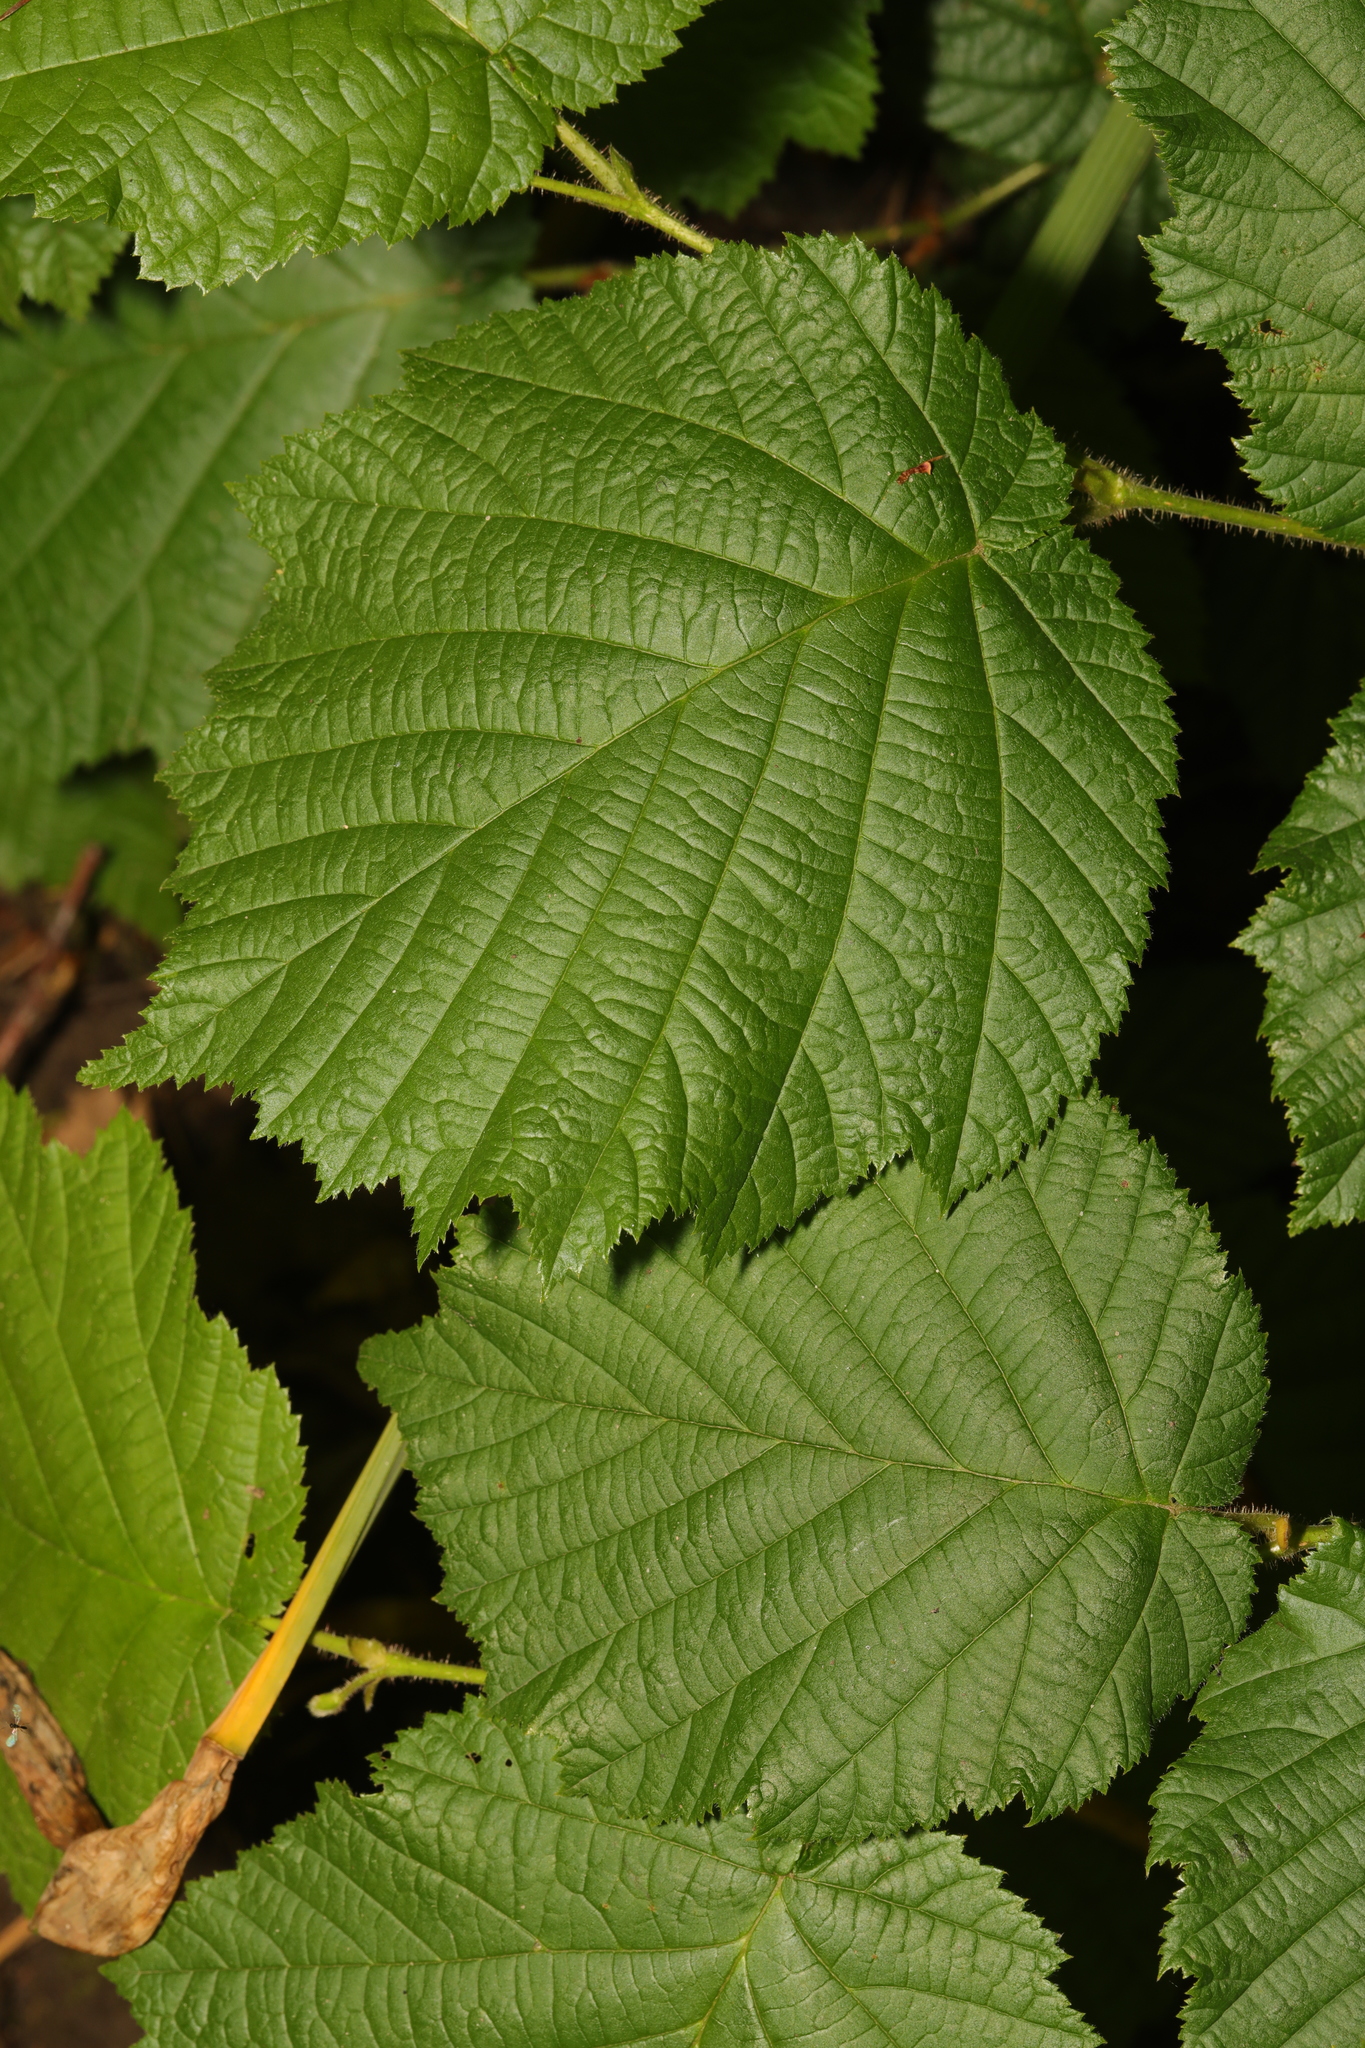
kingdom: Plantae
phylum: Tracheophyta
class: Magnoliopsida
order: Fagales
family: Betulaceae
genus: Corylus
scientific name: Corylus avellana
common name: European hazel
